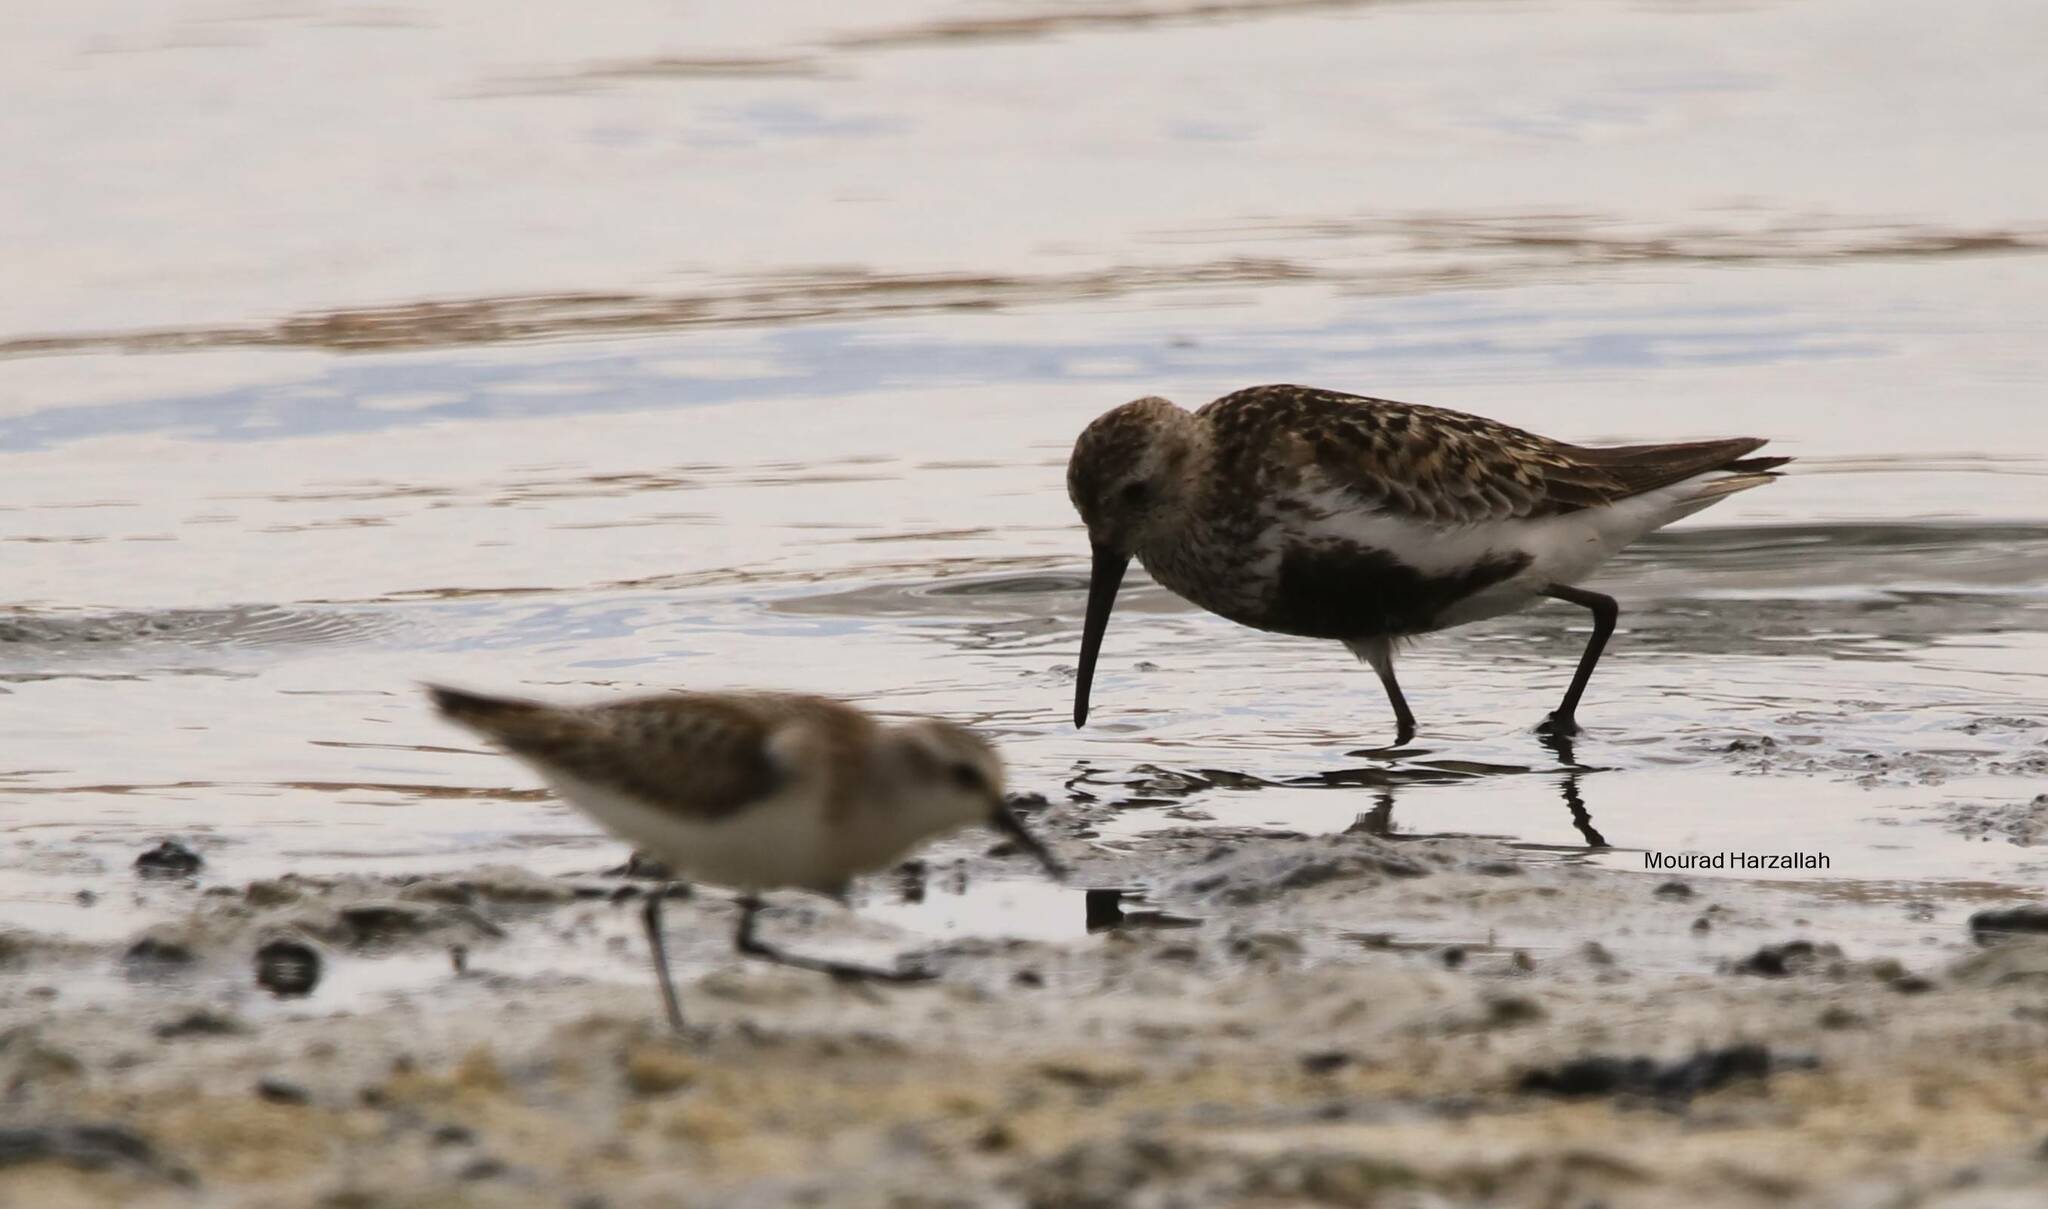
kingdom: Animalia
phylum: Chordata
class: Aves
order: Charadriiformes
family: Scolopacidae
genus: Calidris
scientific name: Calidris alpina
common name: Dunlin
